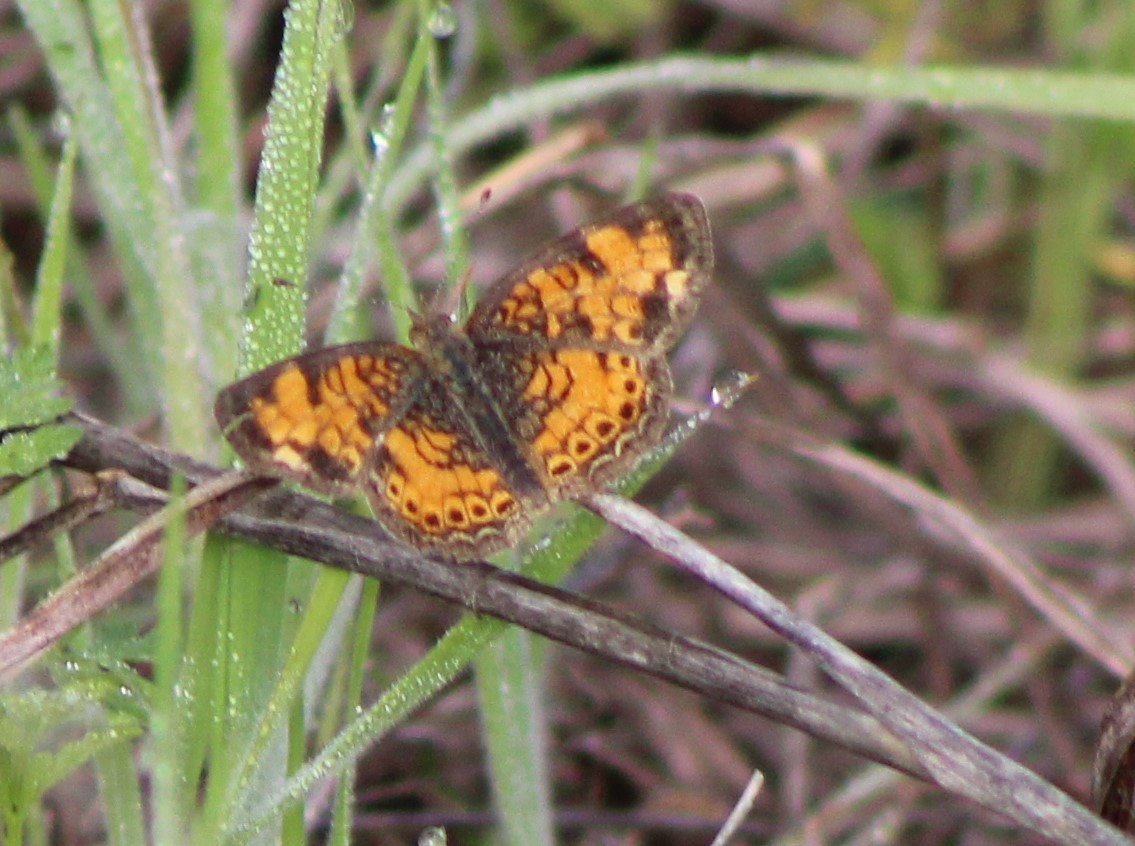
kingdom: Animalia
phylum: Arthropoda
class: Insecta
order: Lepidoptera
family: Nymphalidae
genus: Phyciodes
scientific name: Phyciodes tharos
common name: Pearl crescent
